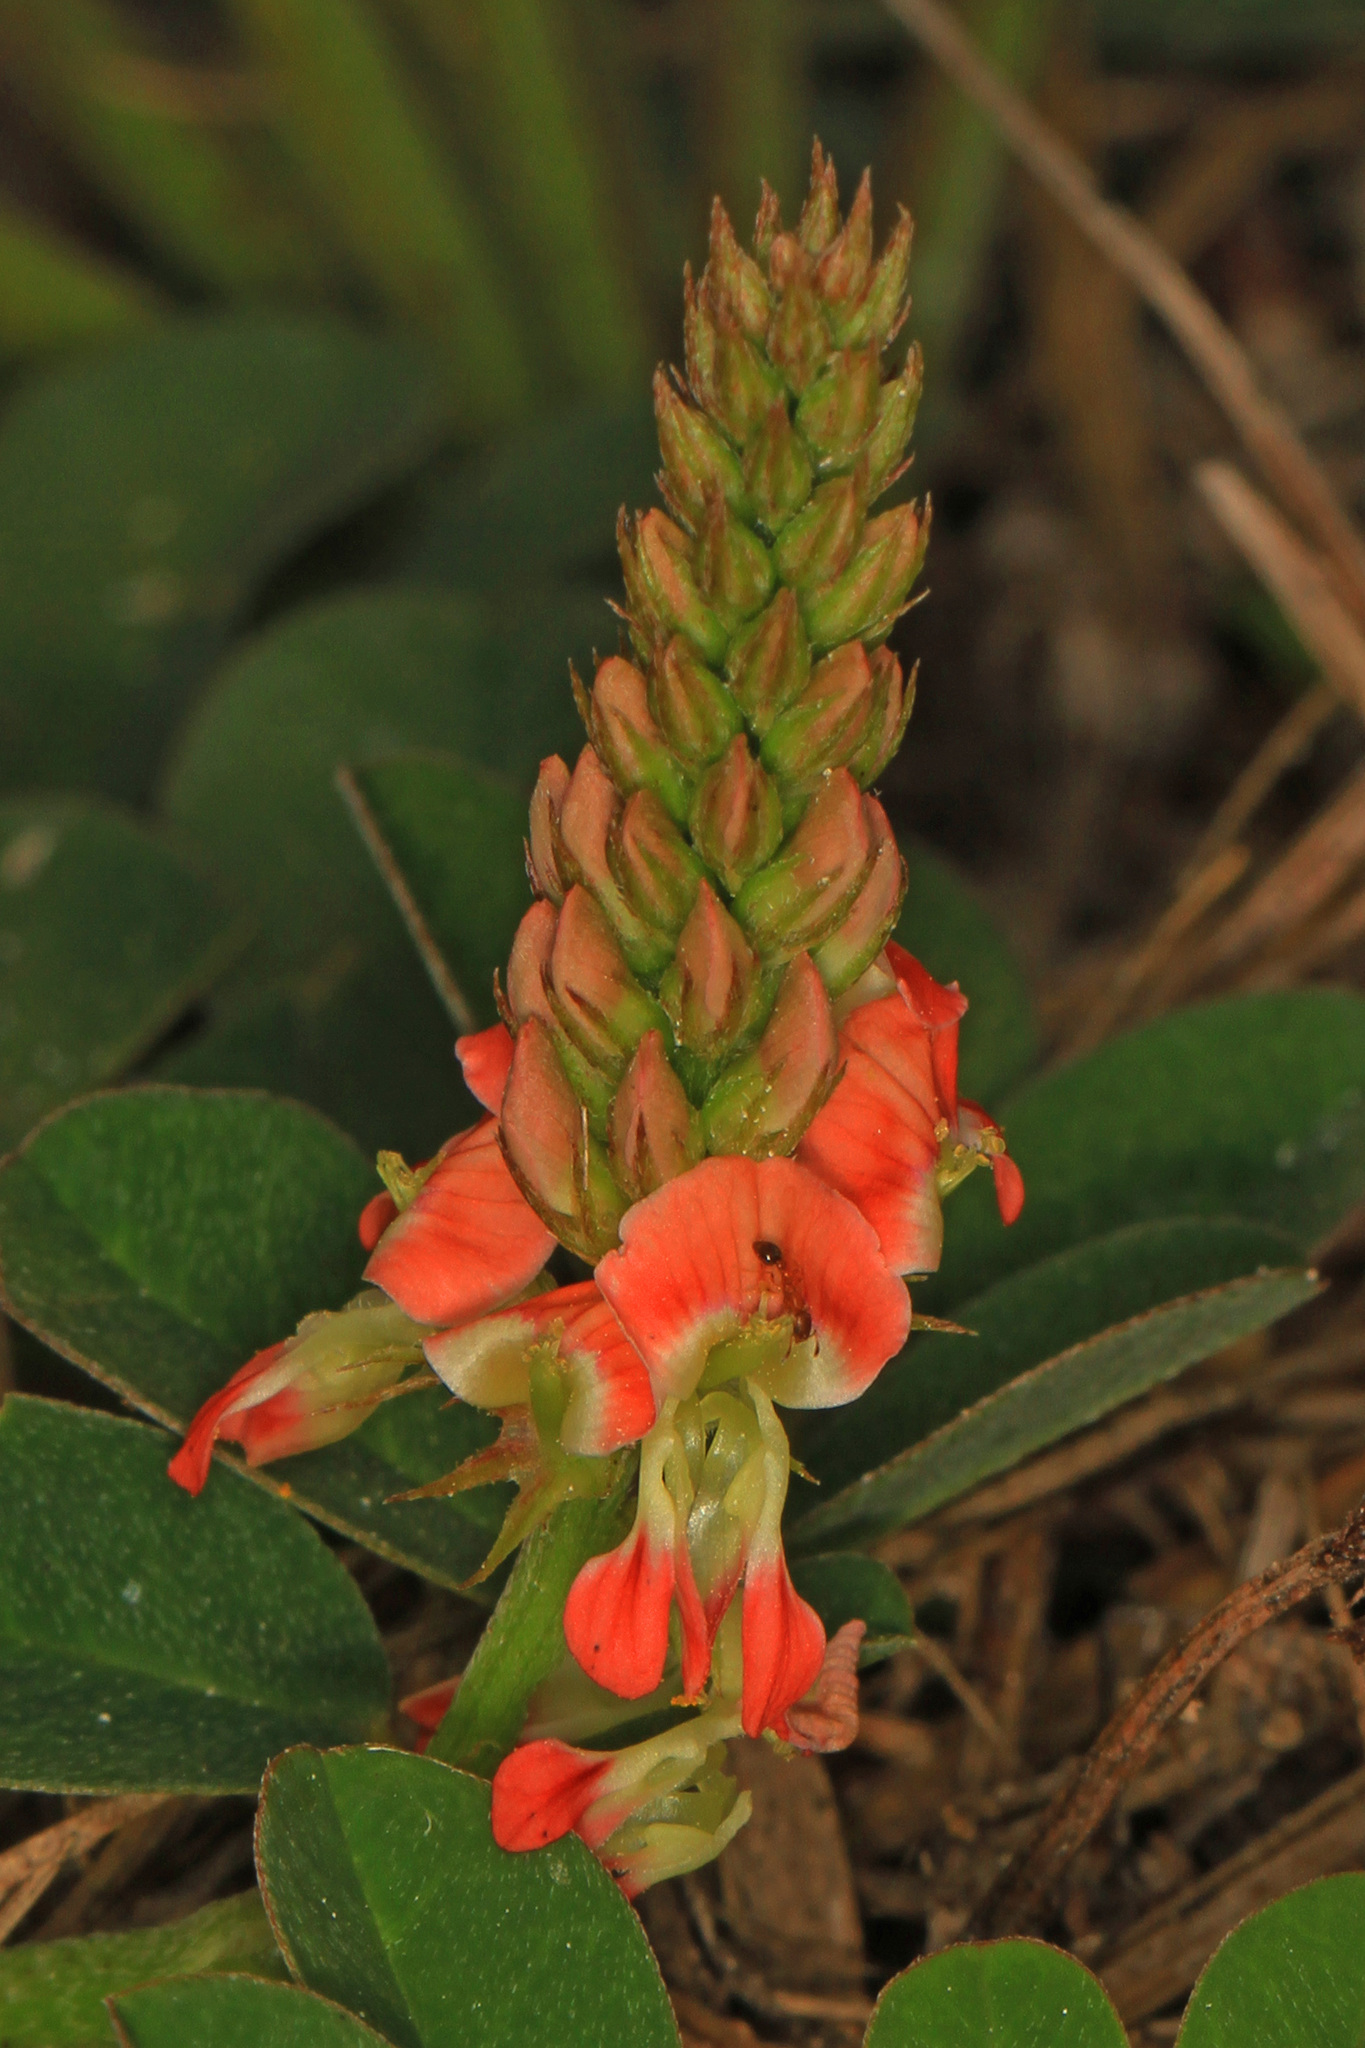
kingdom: Plantae
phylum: Tracheophyta
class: Magnoliopsida
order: Fabales
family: Fabaceae
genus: Indigofera
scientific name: Indigofera spicata
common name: Creeping indigo
